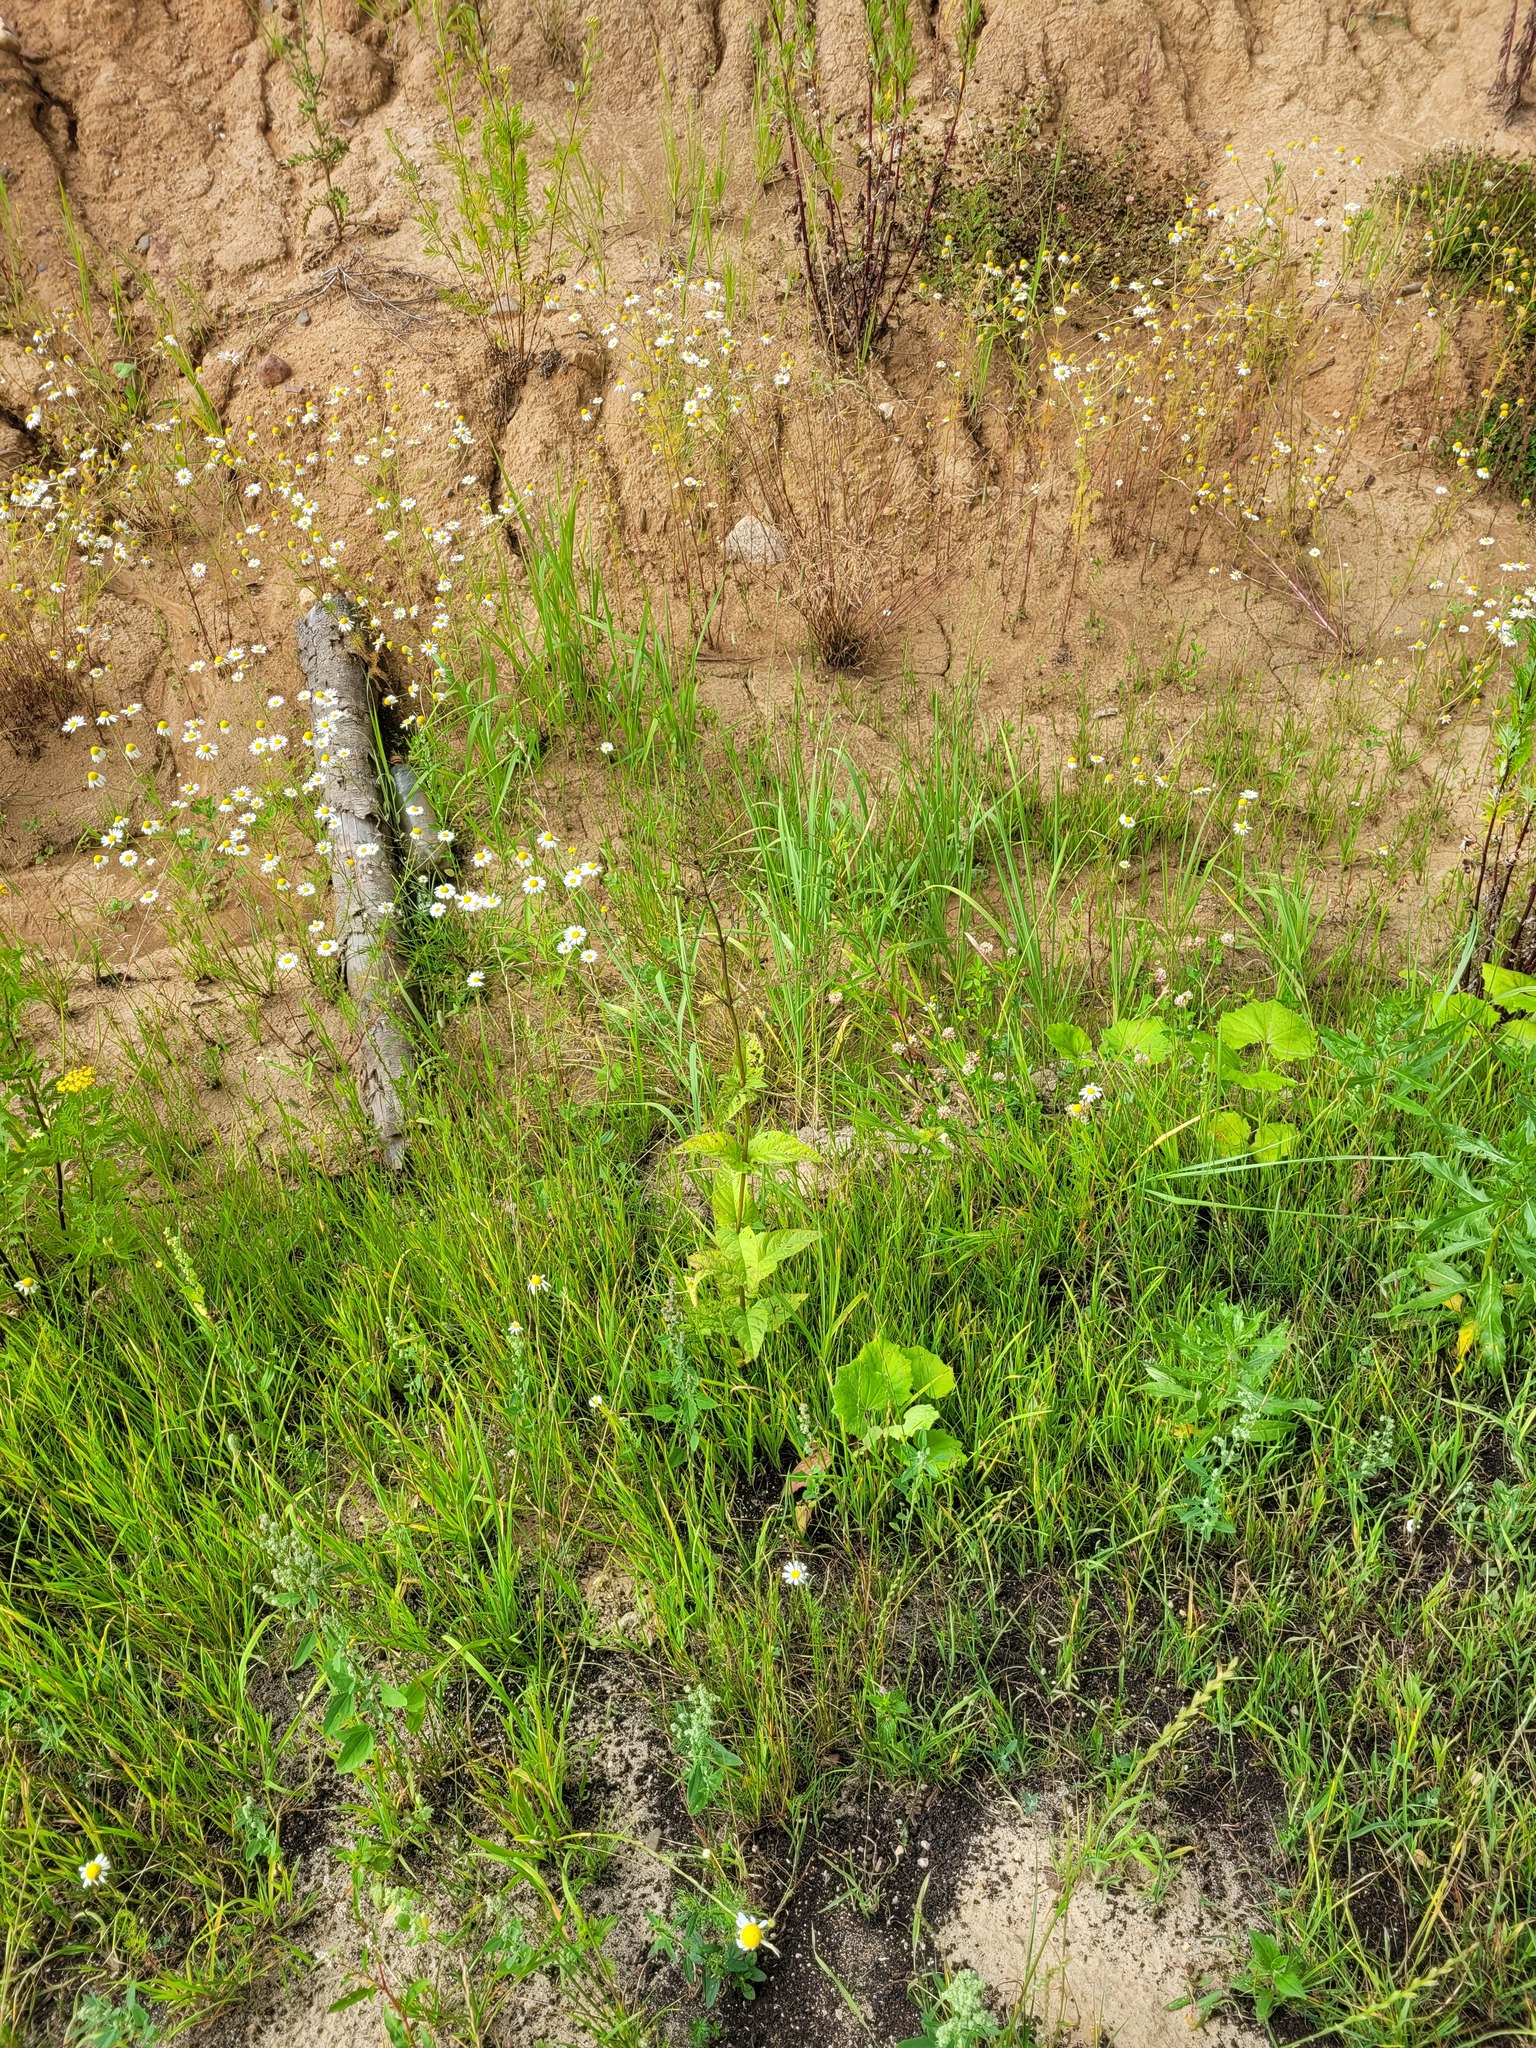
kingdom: Plantae
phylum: Tracheophyta
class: Magnoliopsida
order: Lamiales
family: Scrophulariaceae
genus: Scrophularia
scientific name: Scrophularia nodosa
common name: Common figwort
